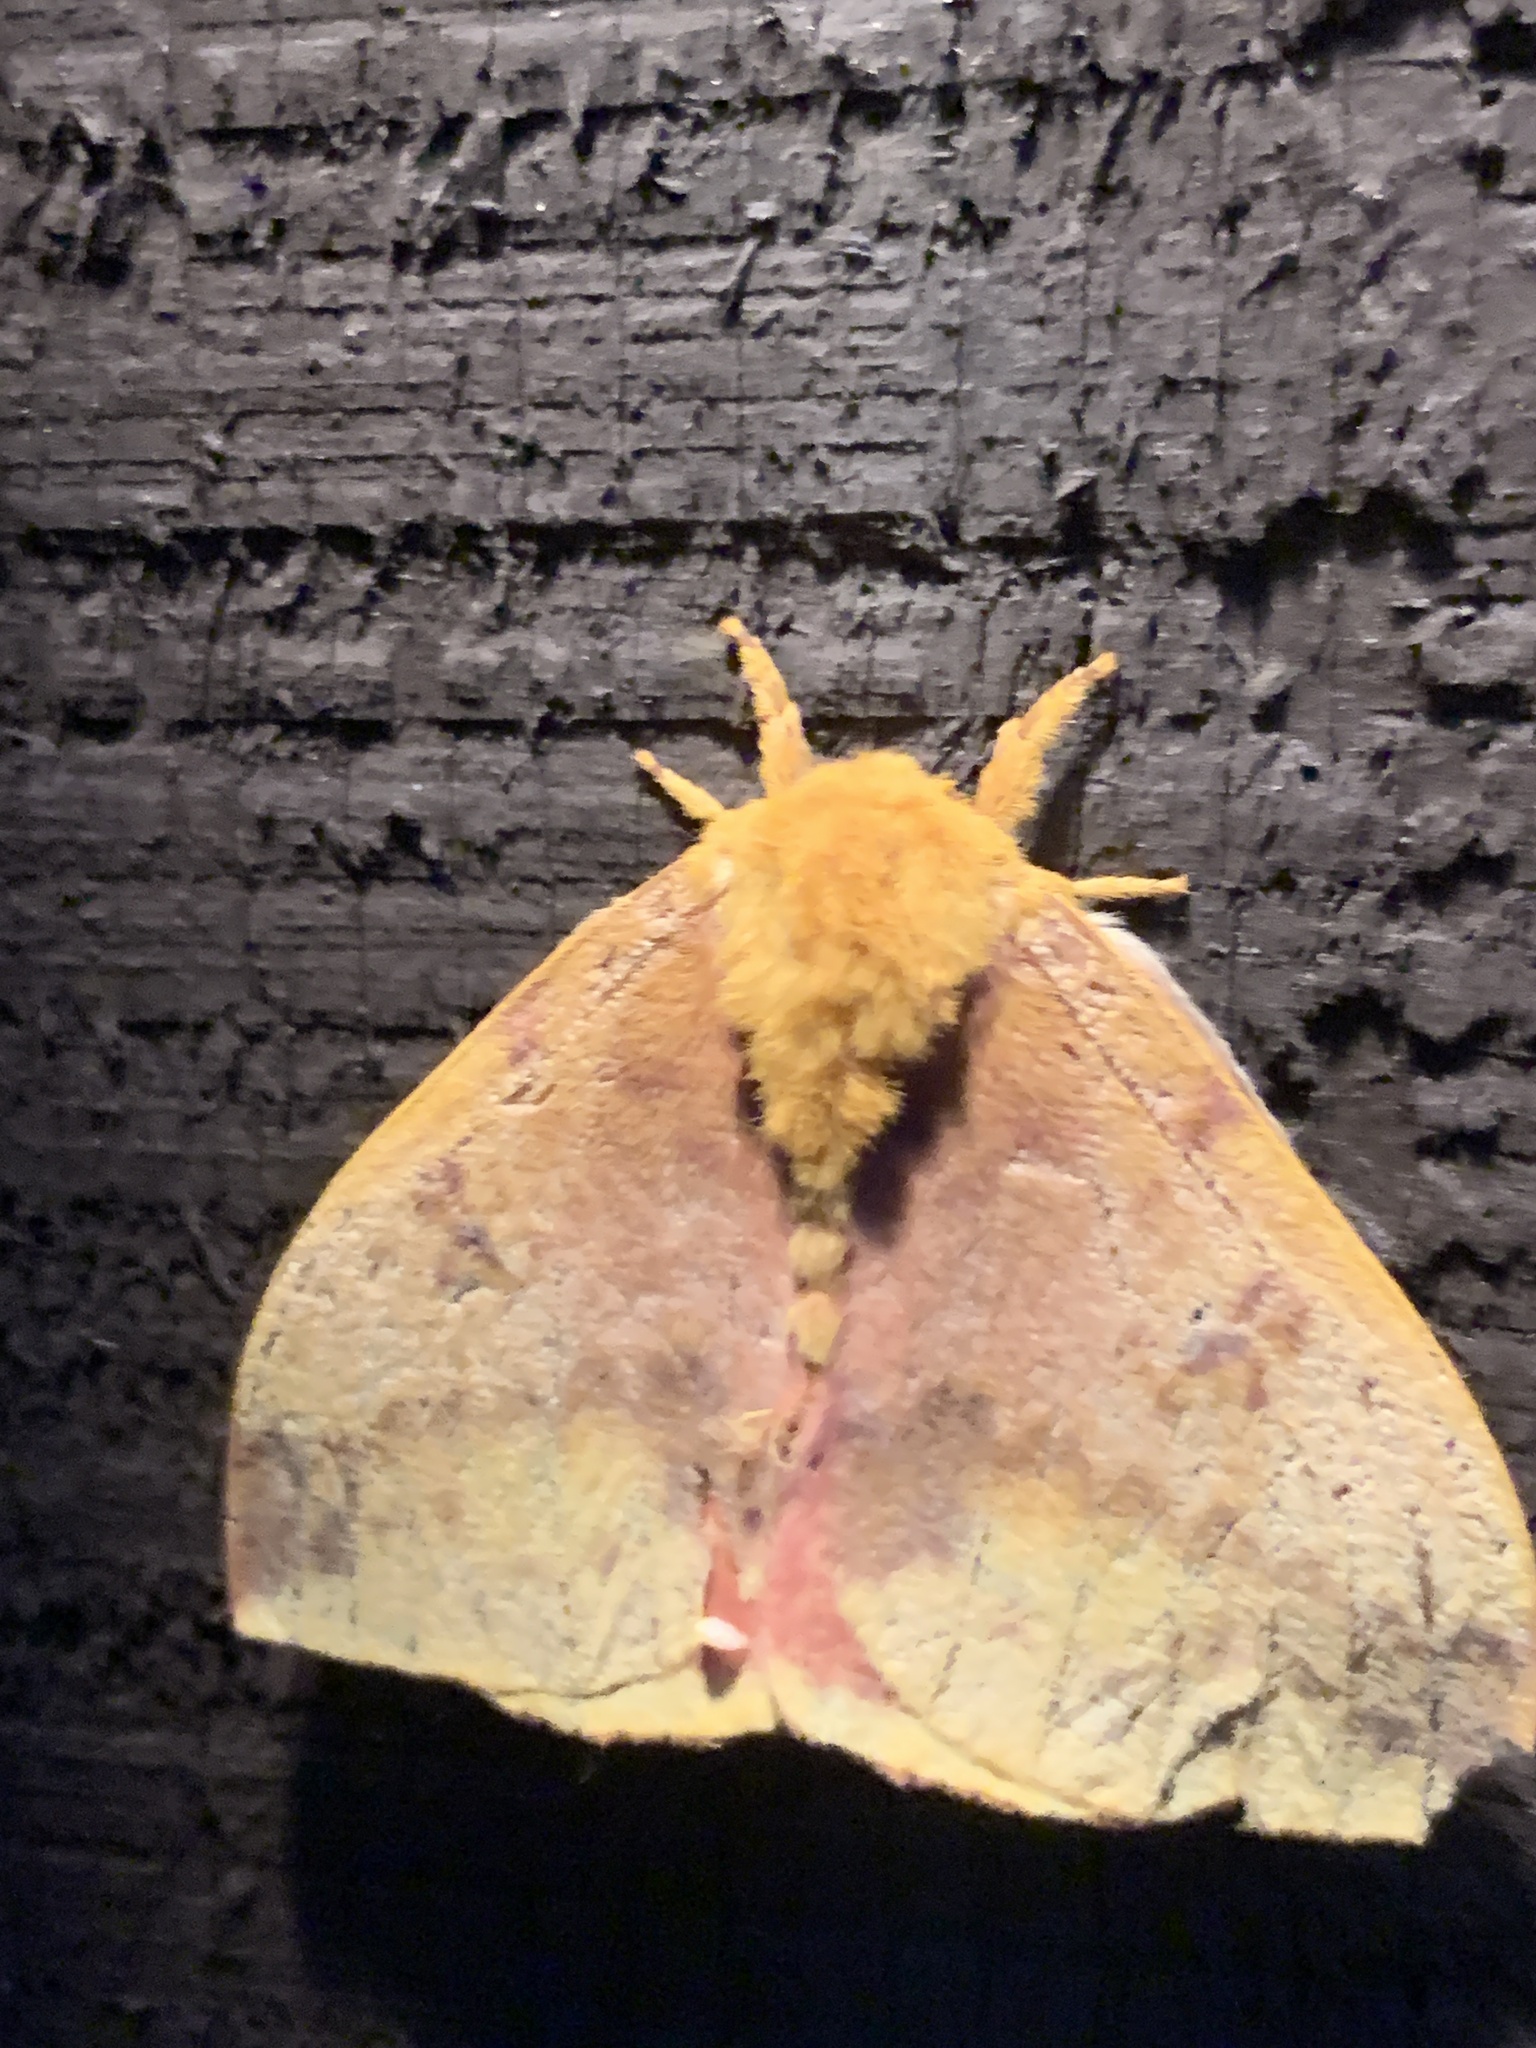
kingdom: Animalia
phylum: Arthropoda
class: Insecta
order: Lepidoptera
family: Saturniidae
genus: Automeris
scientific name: Automeris io
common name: Io moth
